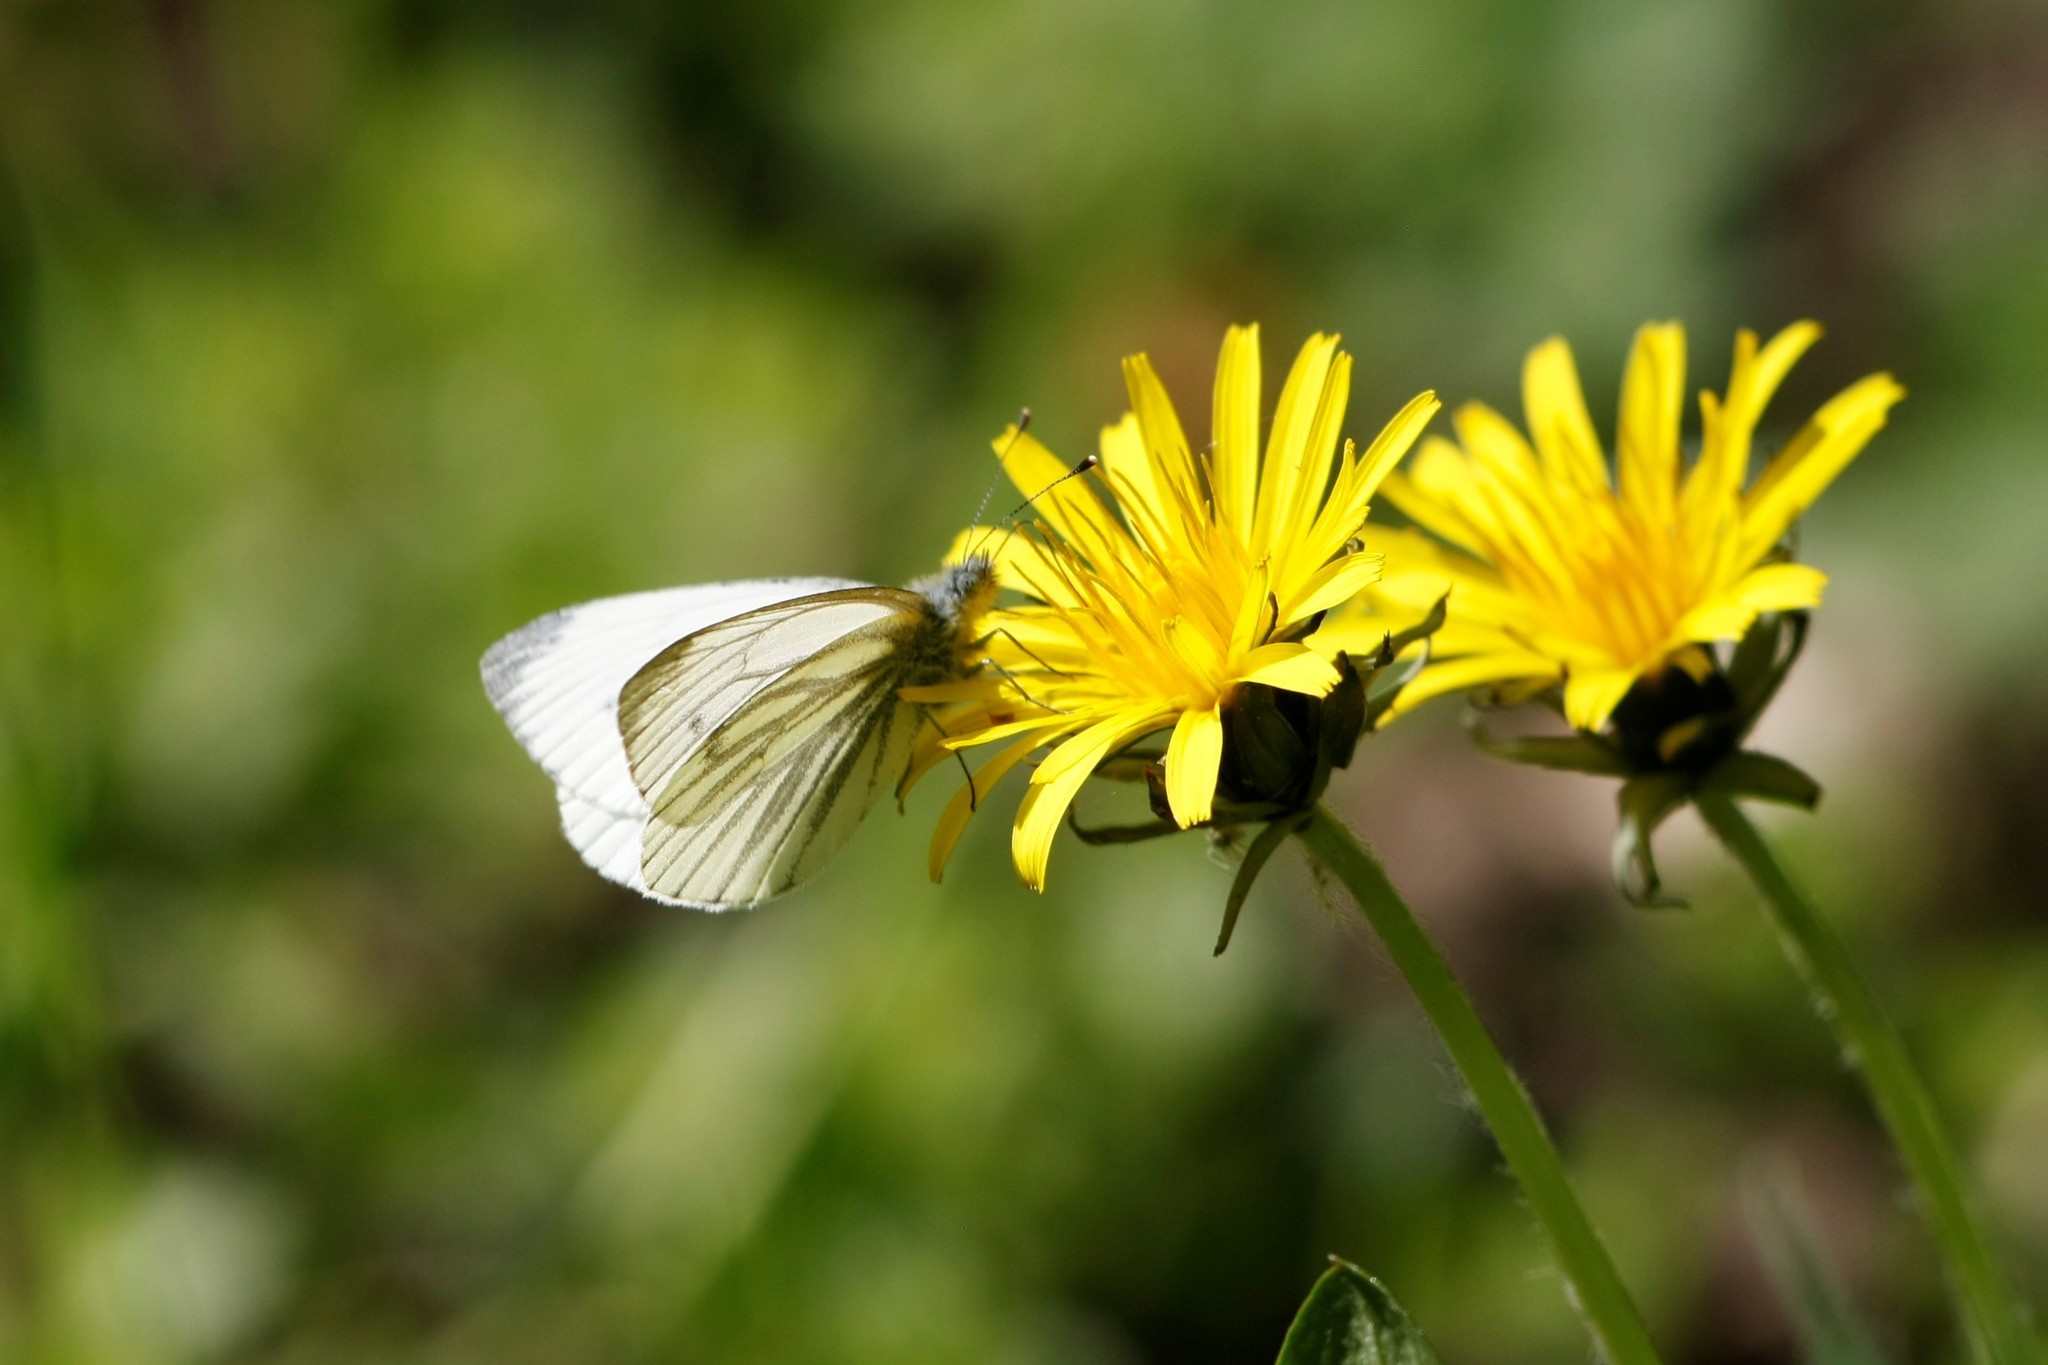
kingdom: Animalia
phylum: Arthropoda
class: Insecta
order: Lepidoptera
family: Pieridae
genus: Pieris
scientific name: Pieris napi
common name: Green-veined white
